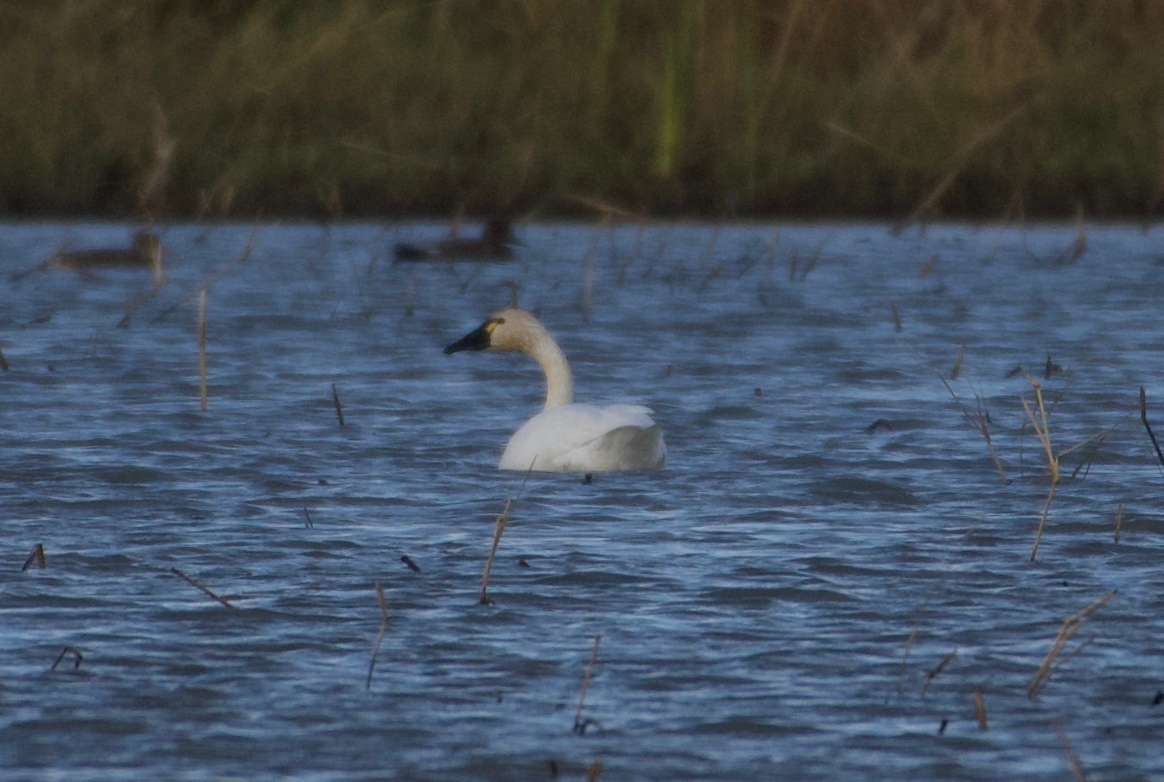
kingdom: Animalia
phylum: Chordata
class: Aves
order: Anseriformes
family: Anatidae
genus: Cygnus
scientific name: Cygnus columbianus
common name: Tundra swan
